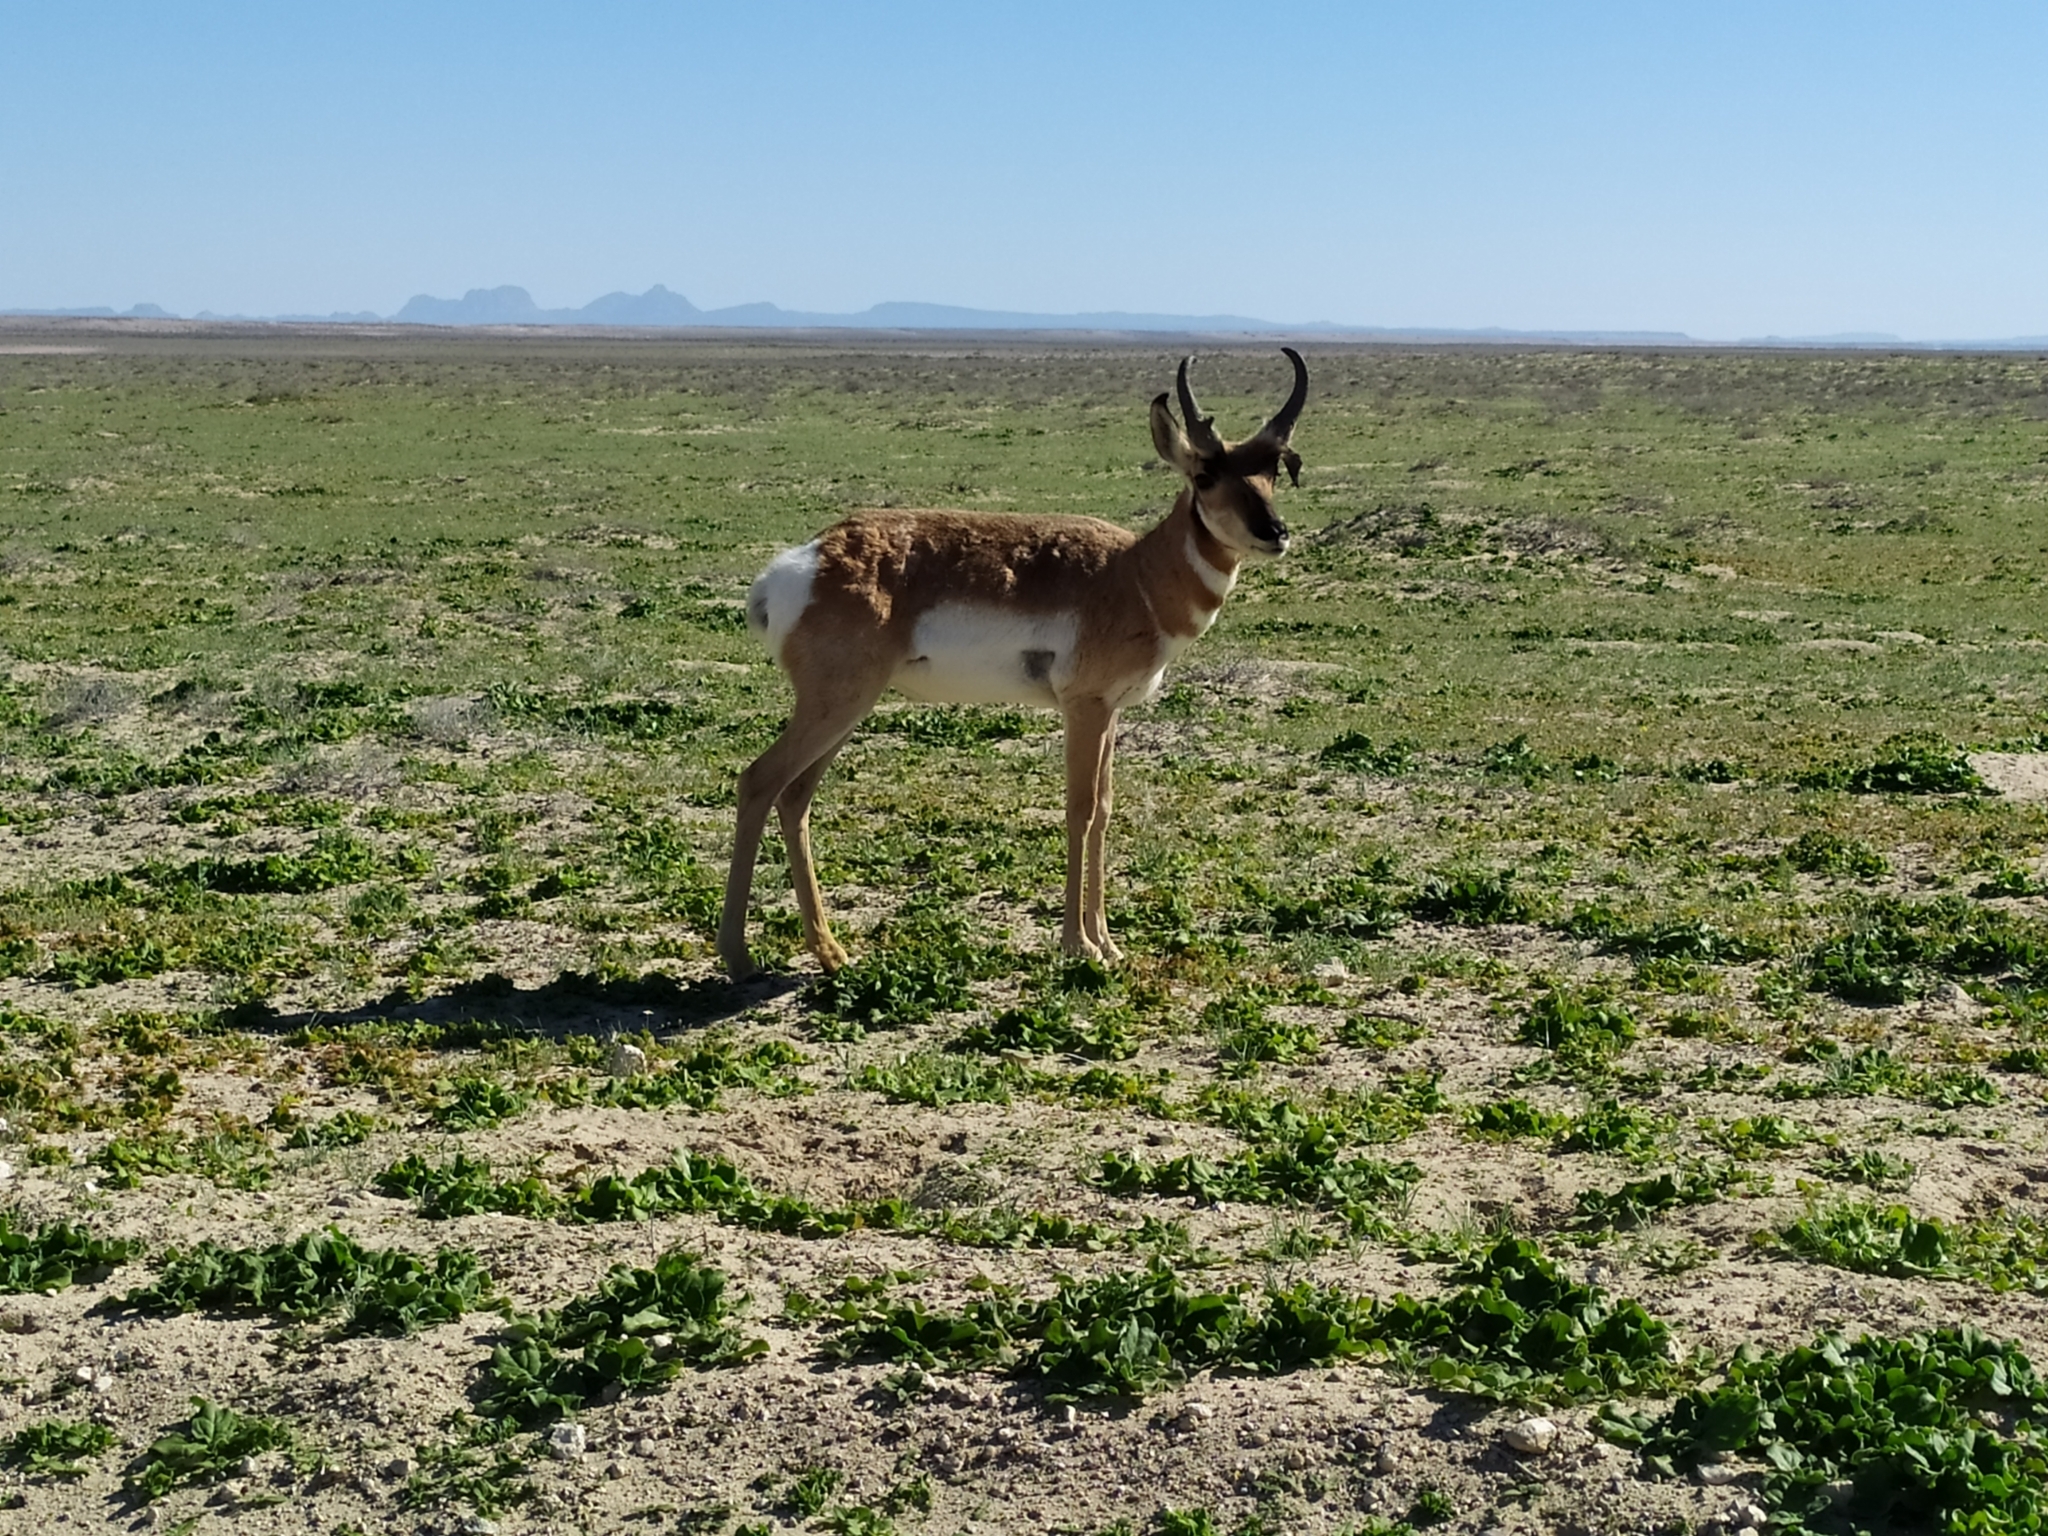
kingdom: Animalia
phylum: Chordata
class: Mammalia
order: Artiodactyla
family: Antilocapridae
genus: Antilocapra
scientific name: Antilocapra americana
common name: Pronghorn
